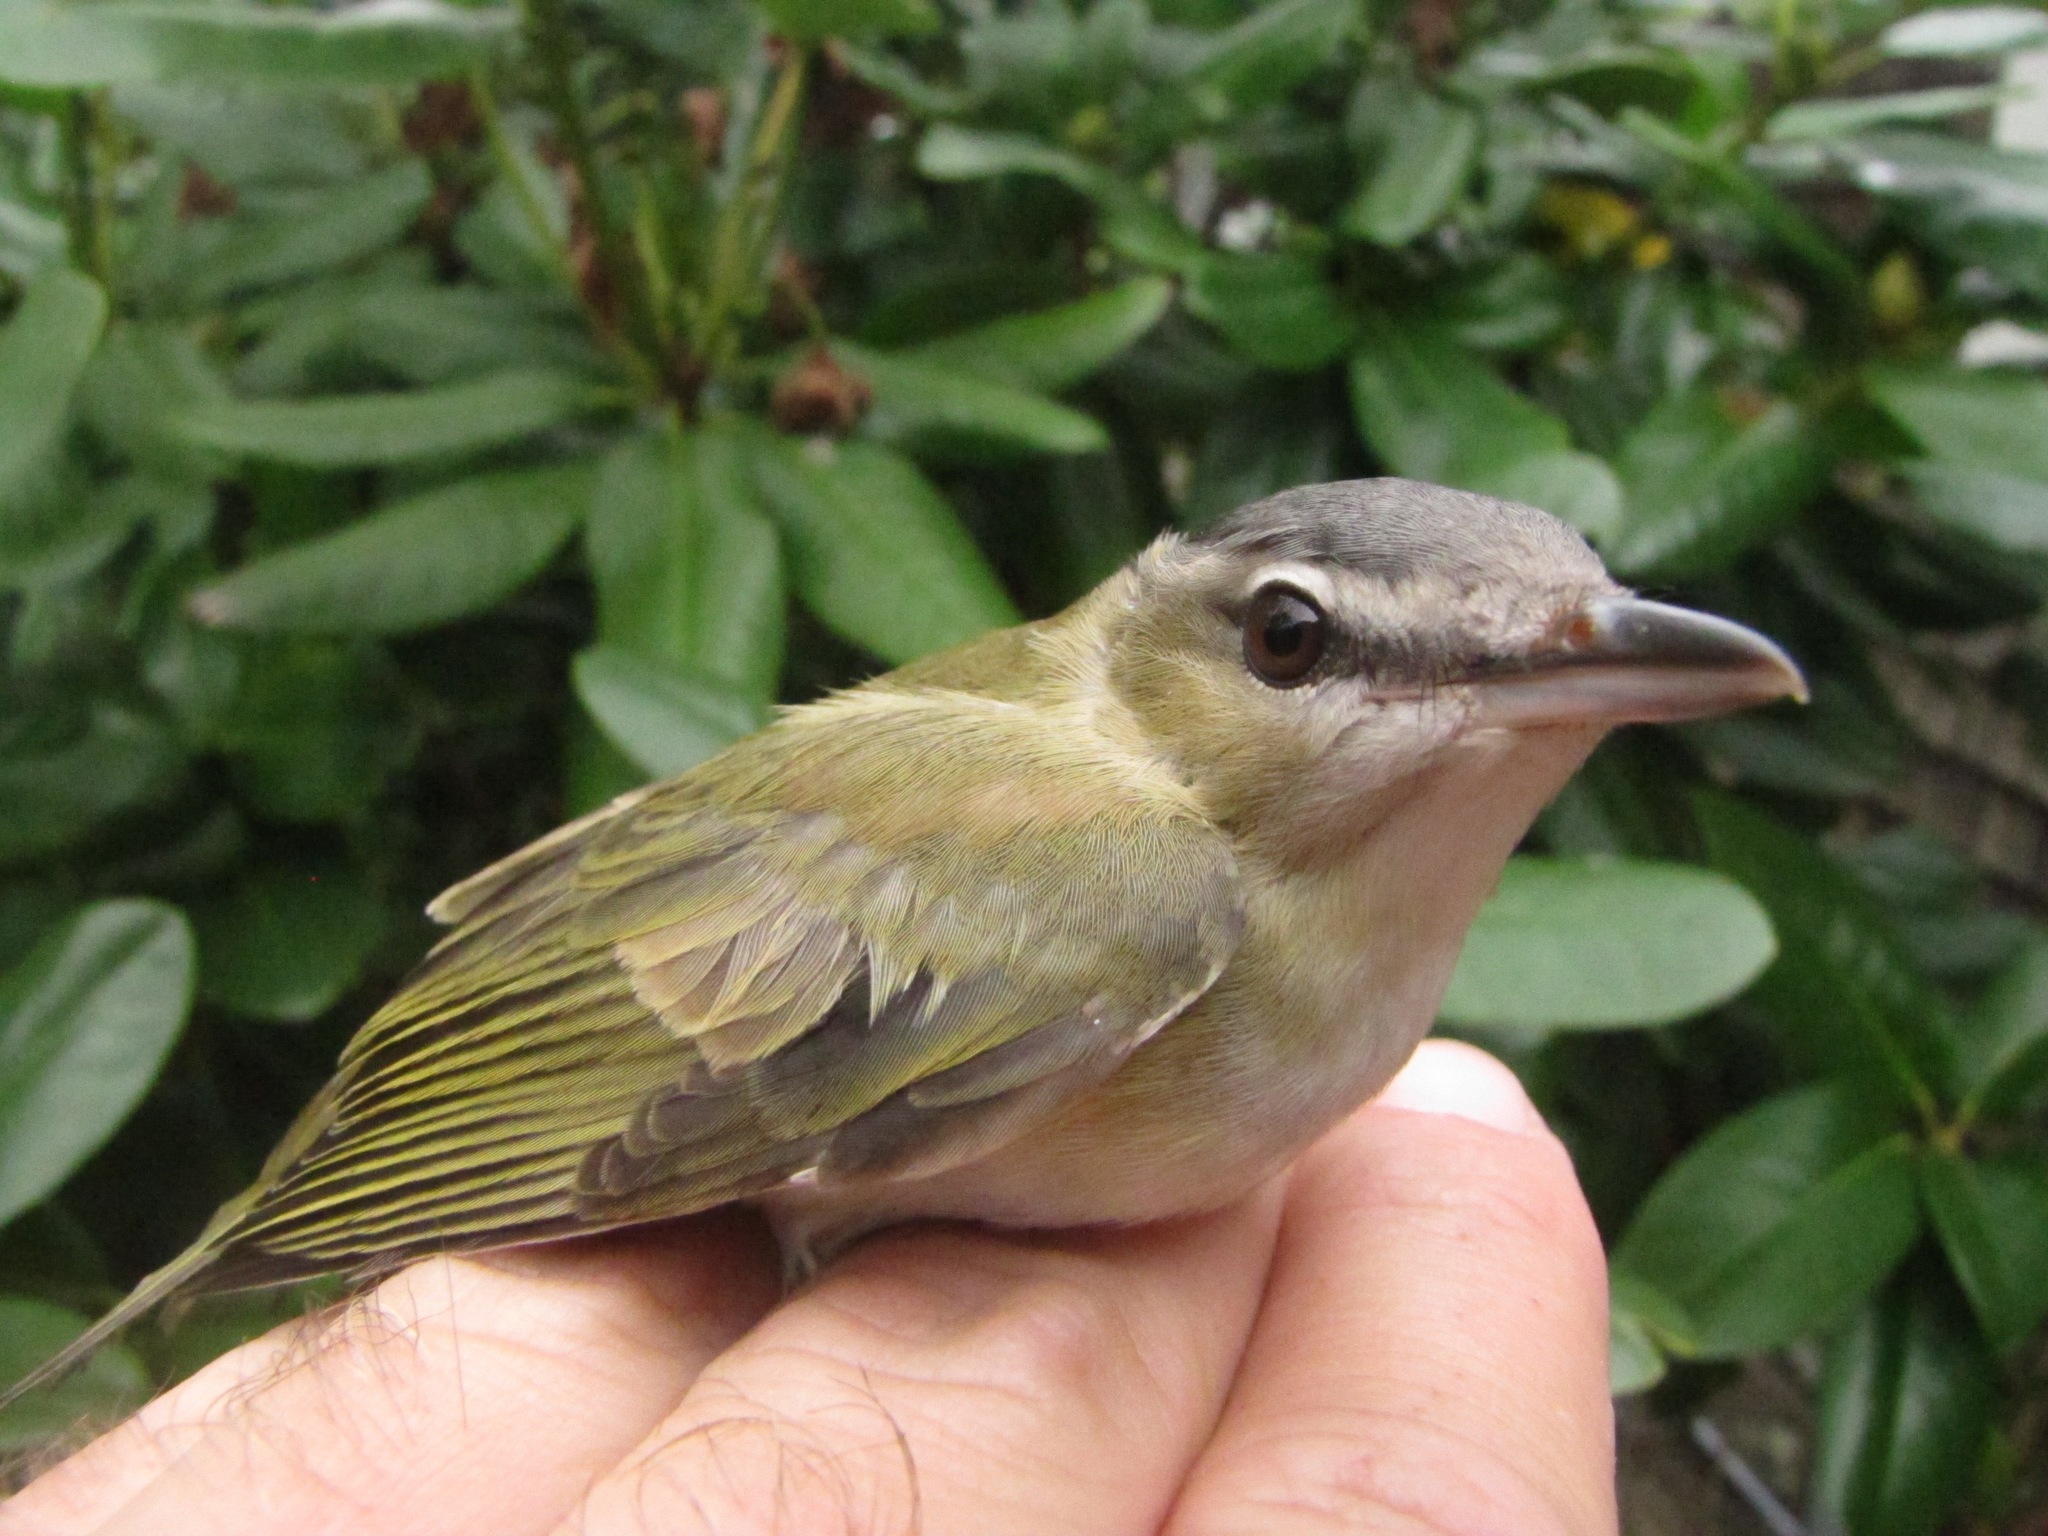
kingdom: Animalia
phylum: Chordata
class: Aves
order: Passeriformes
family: Vireonidae
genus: Vireo
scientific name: Vireo olivaceus
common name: Red-eyed vireo
